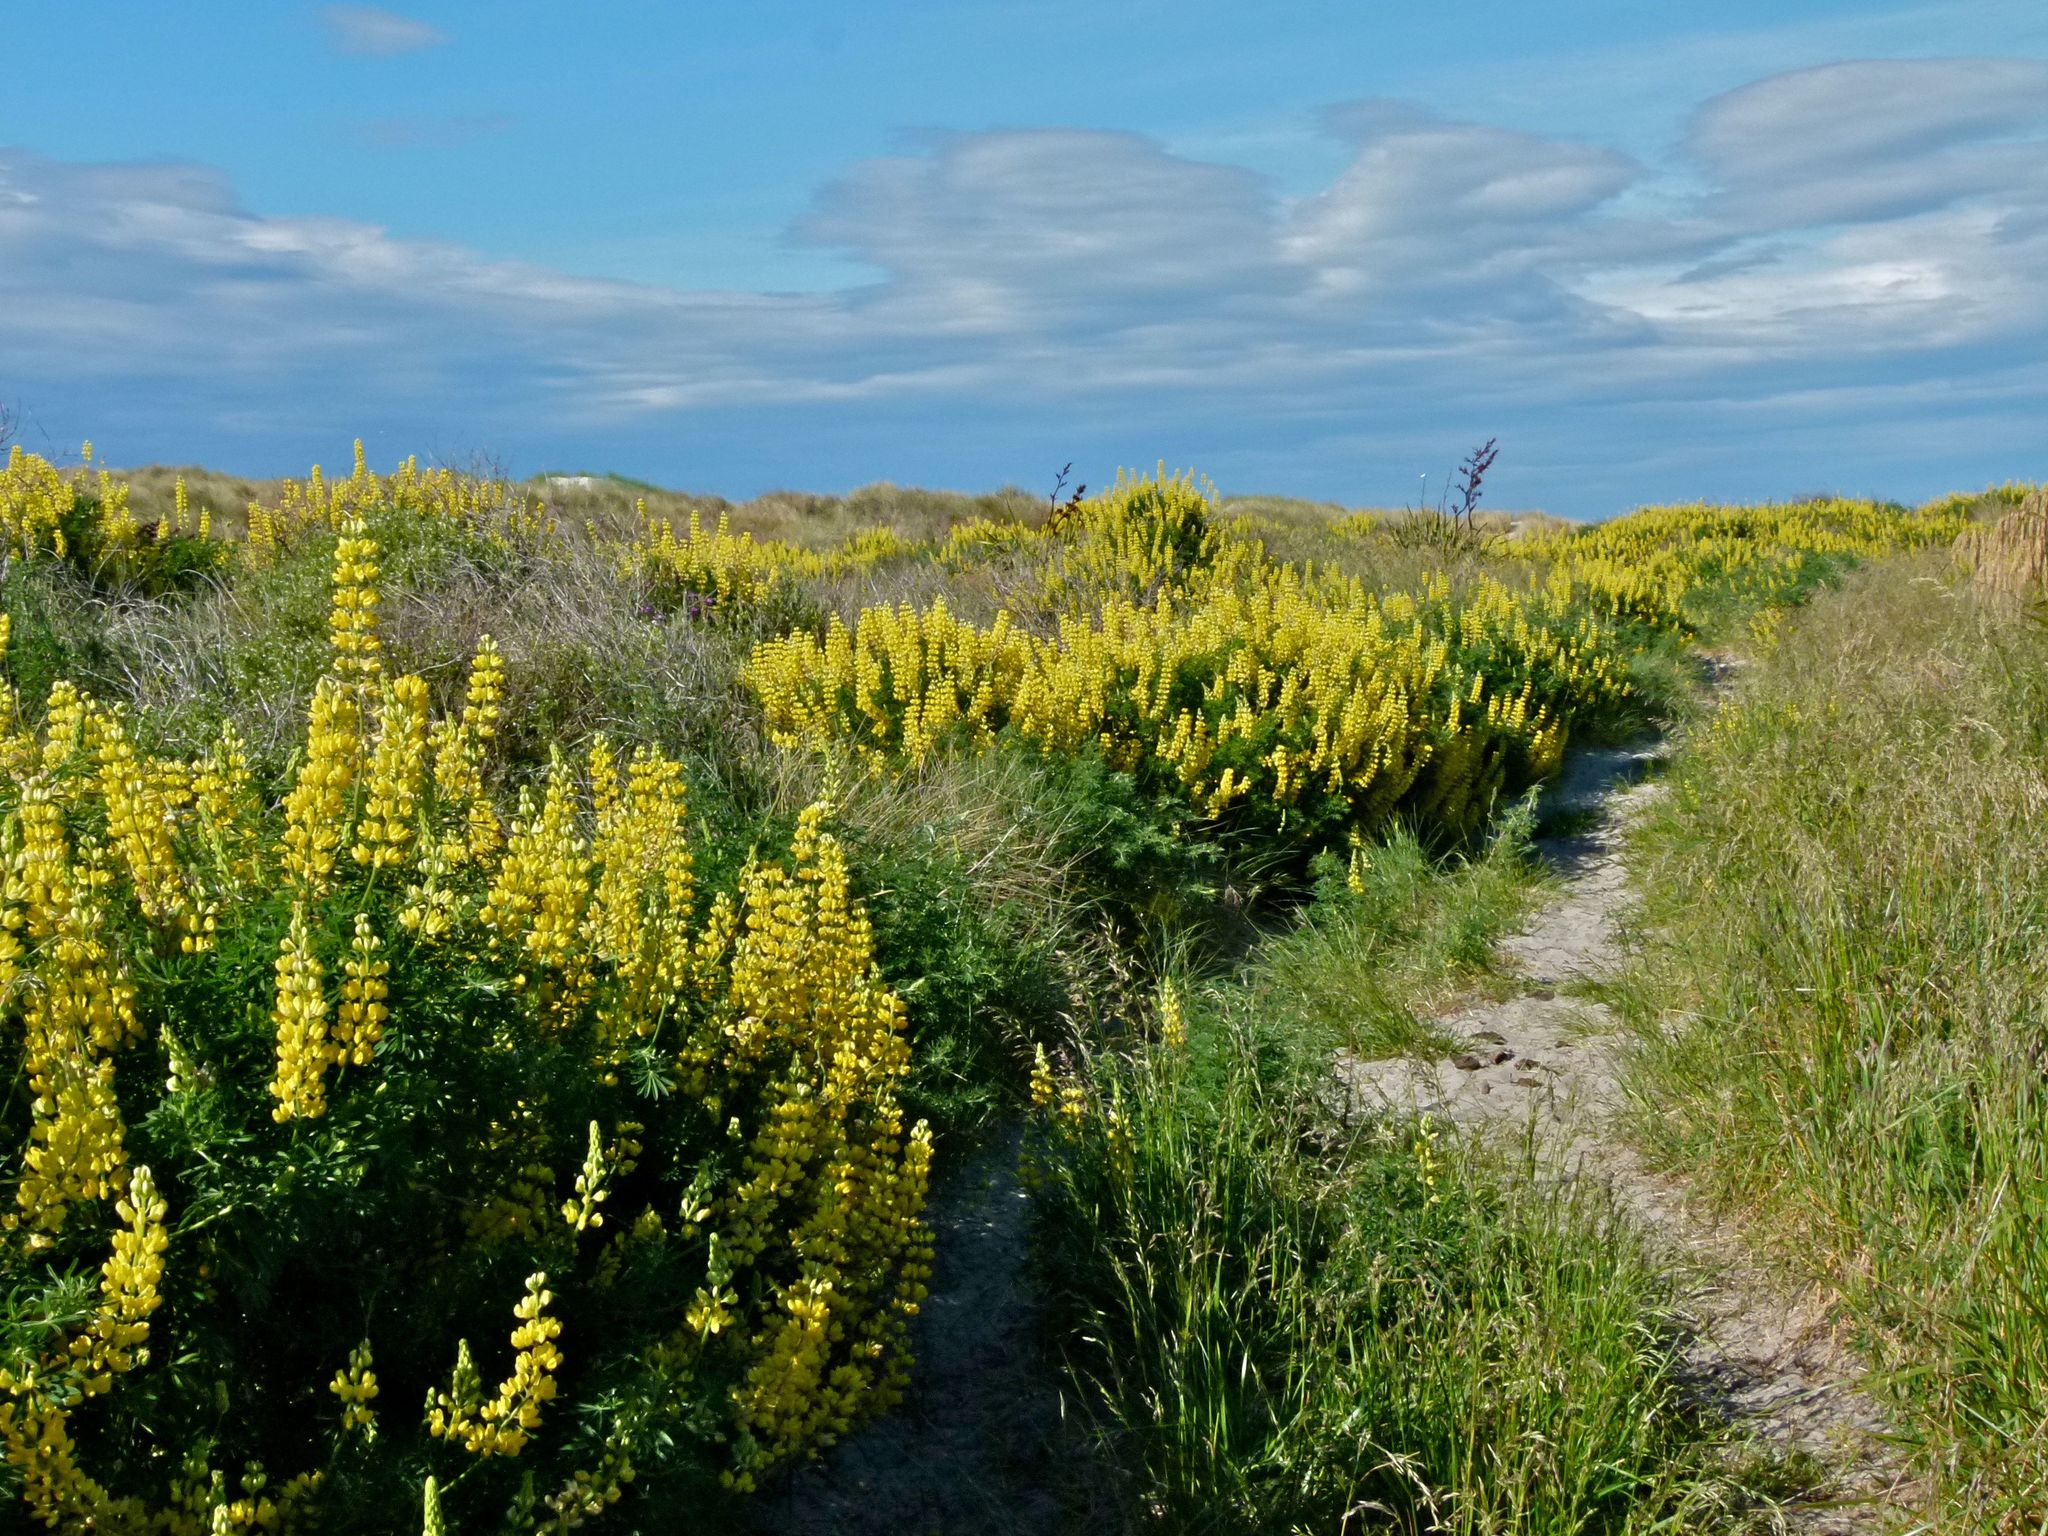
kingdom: Plantae
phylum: Tracheophyta
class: Magnoliopsida
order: Fabales
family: Fabaceae
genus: Lupinus
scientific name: Lupinus arboreus
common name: Yellow bush lupine
